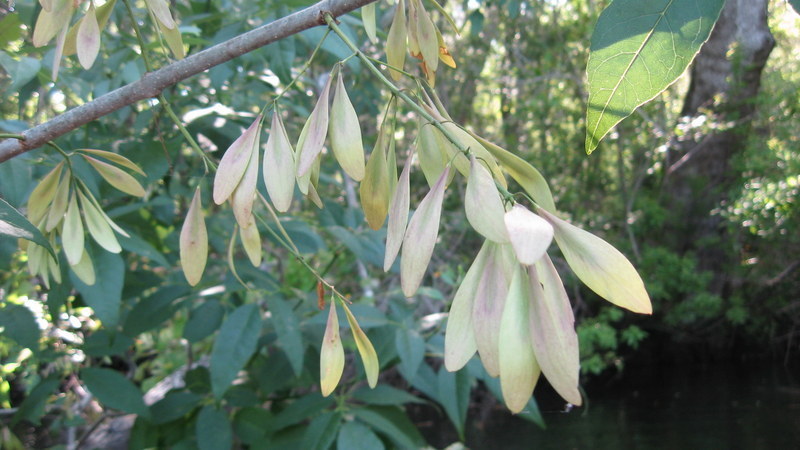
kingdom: Plantae
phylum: Tracheophyta
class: Magnoliopsida
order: Lamiales
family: Oleaceae
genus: Fraxinus
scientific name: Fraxinus caroliniana
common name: Carolina ash
